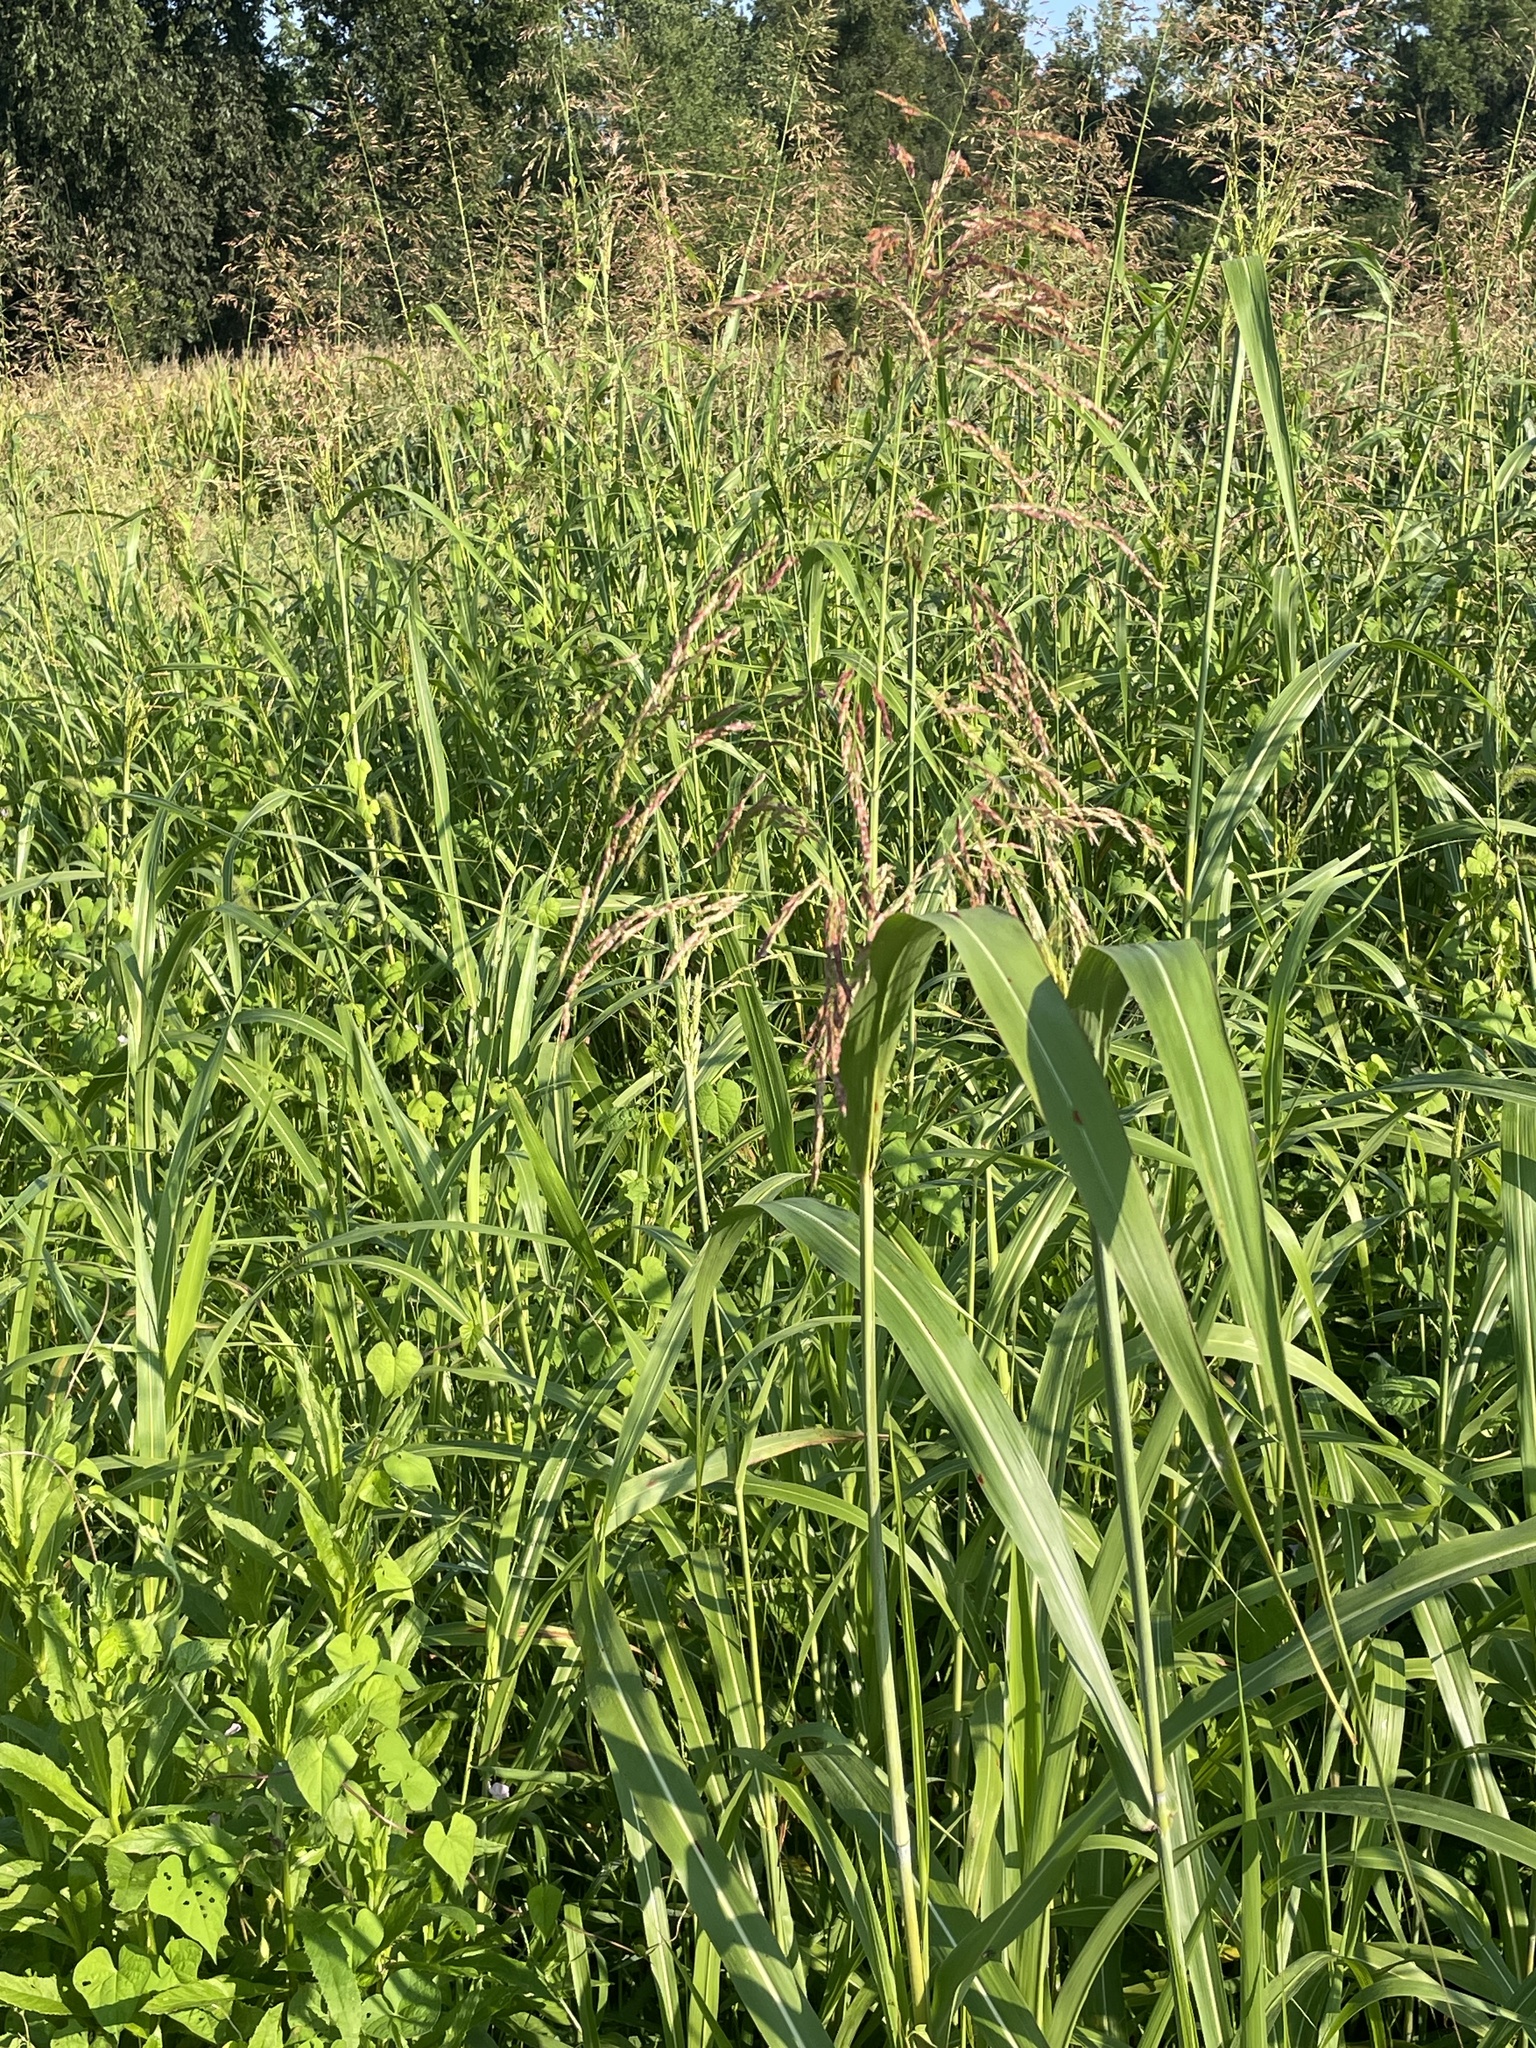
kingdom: Plantae
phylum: Tracheophyta
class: Liliopsida
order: Poales
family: Poaceae
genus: Sorghum
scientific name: Sorghum halepense
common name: Johnson-grass
